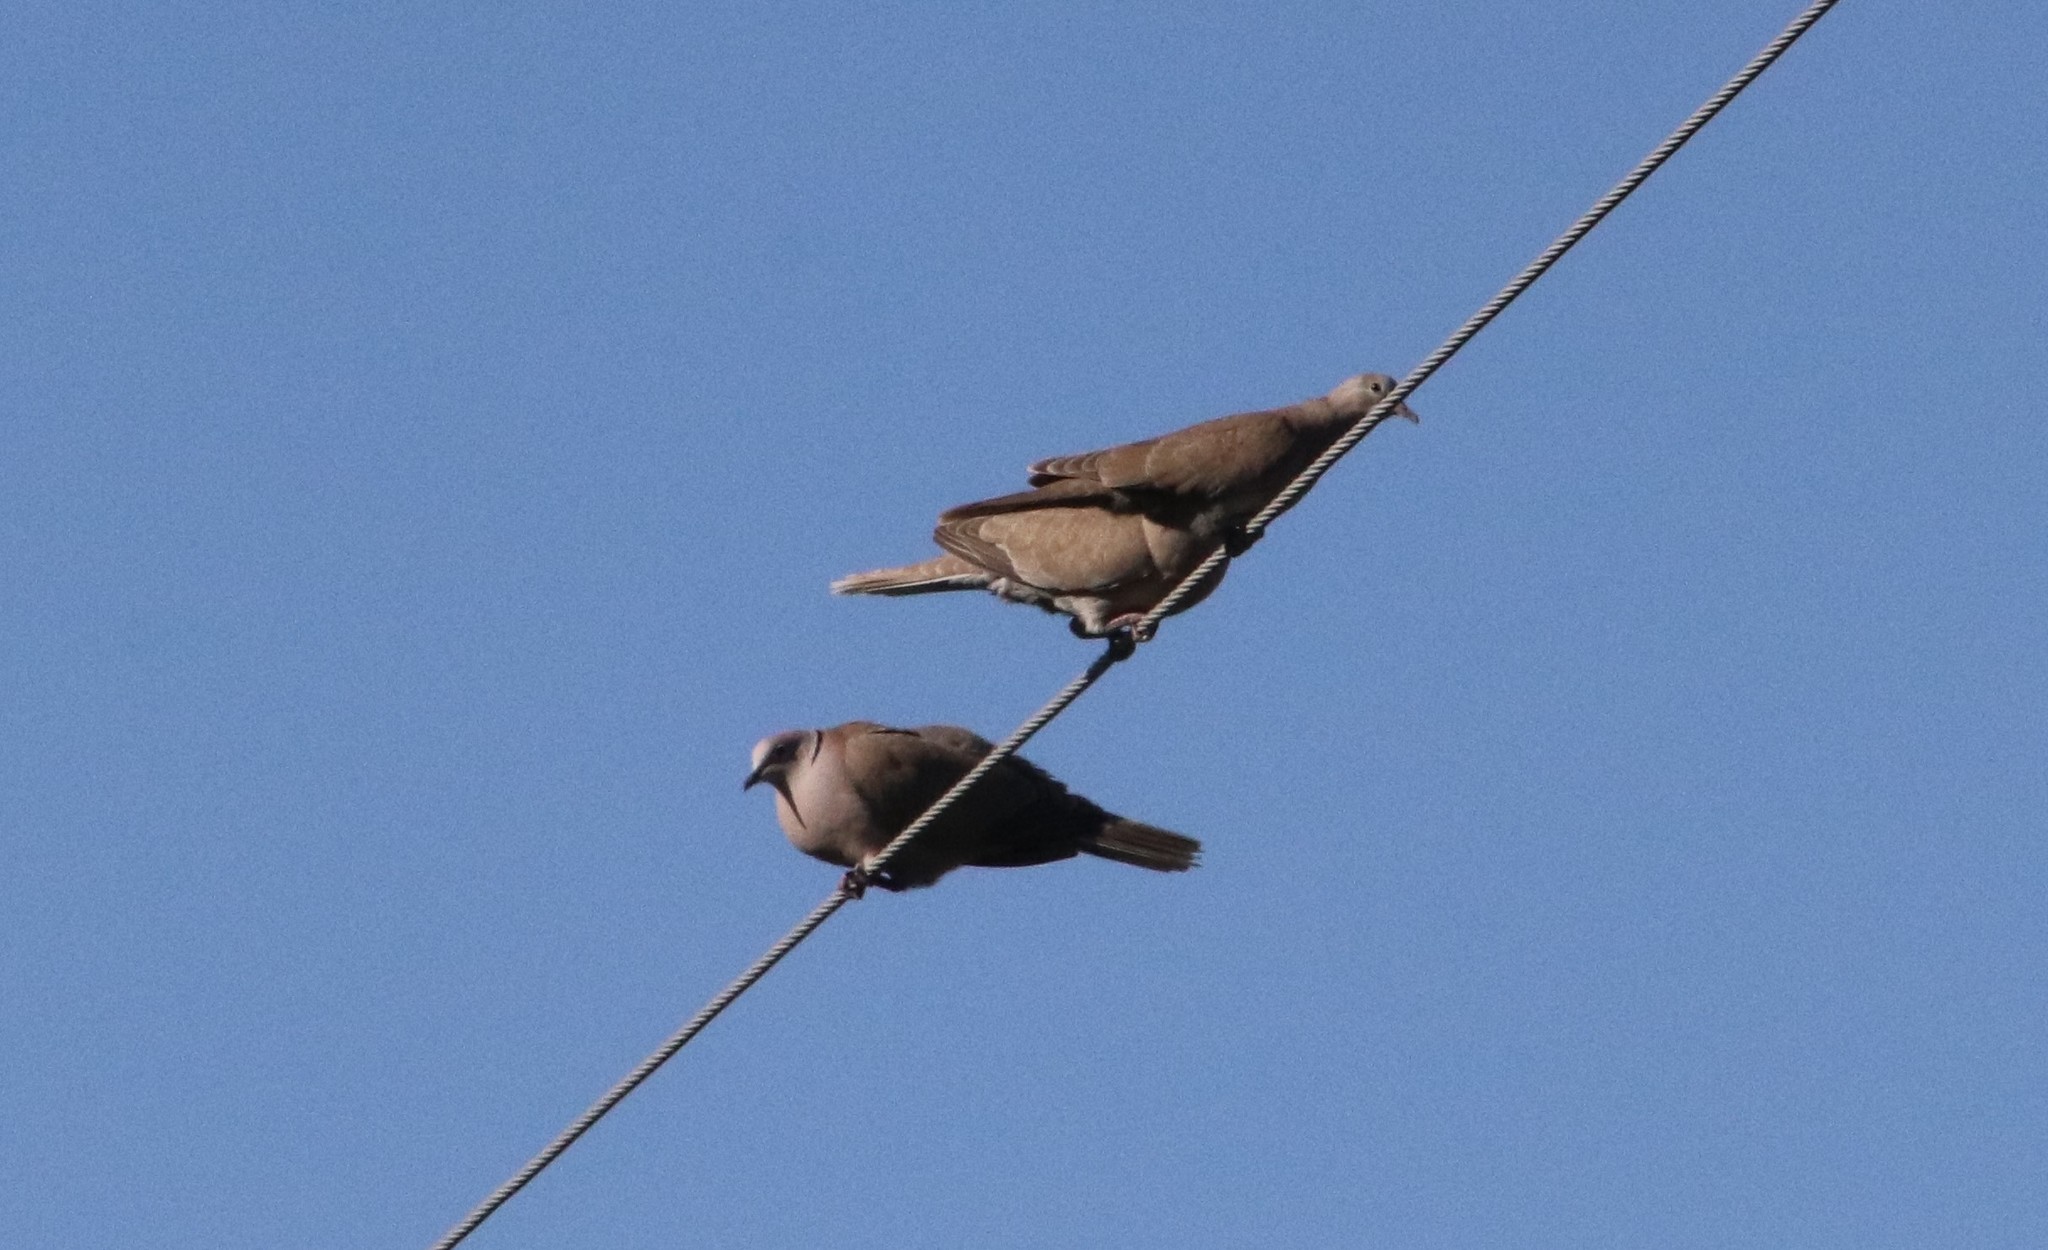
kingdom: Animalia
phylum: Chordata
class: Aves
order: Columbiformes
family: Columbidae
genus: Streptopelia
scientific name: Streptopelia decaocto
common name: Eurasian collared dove
